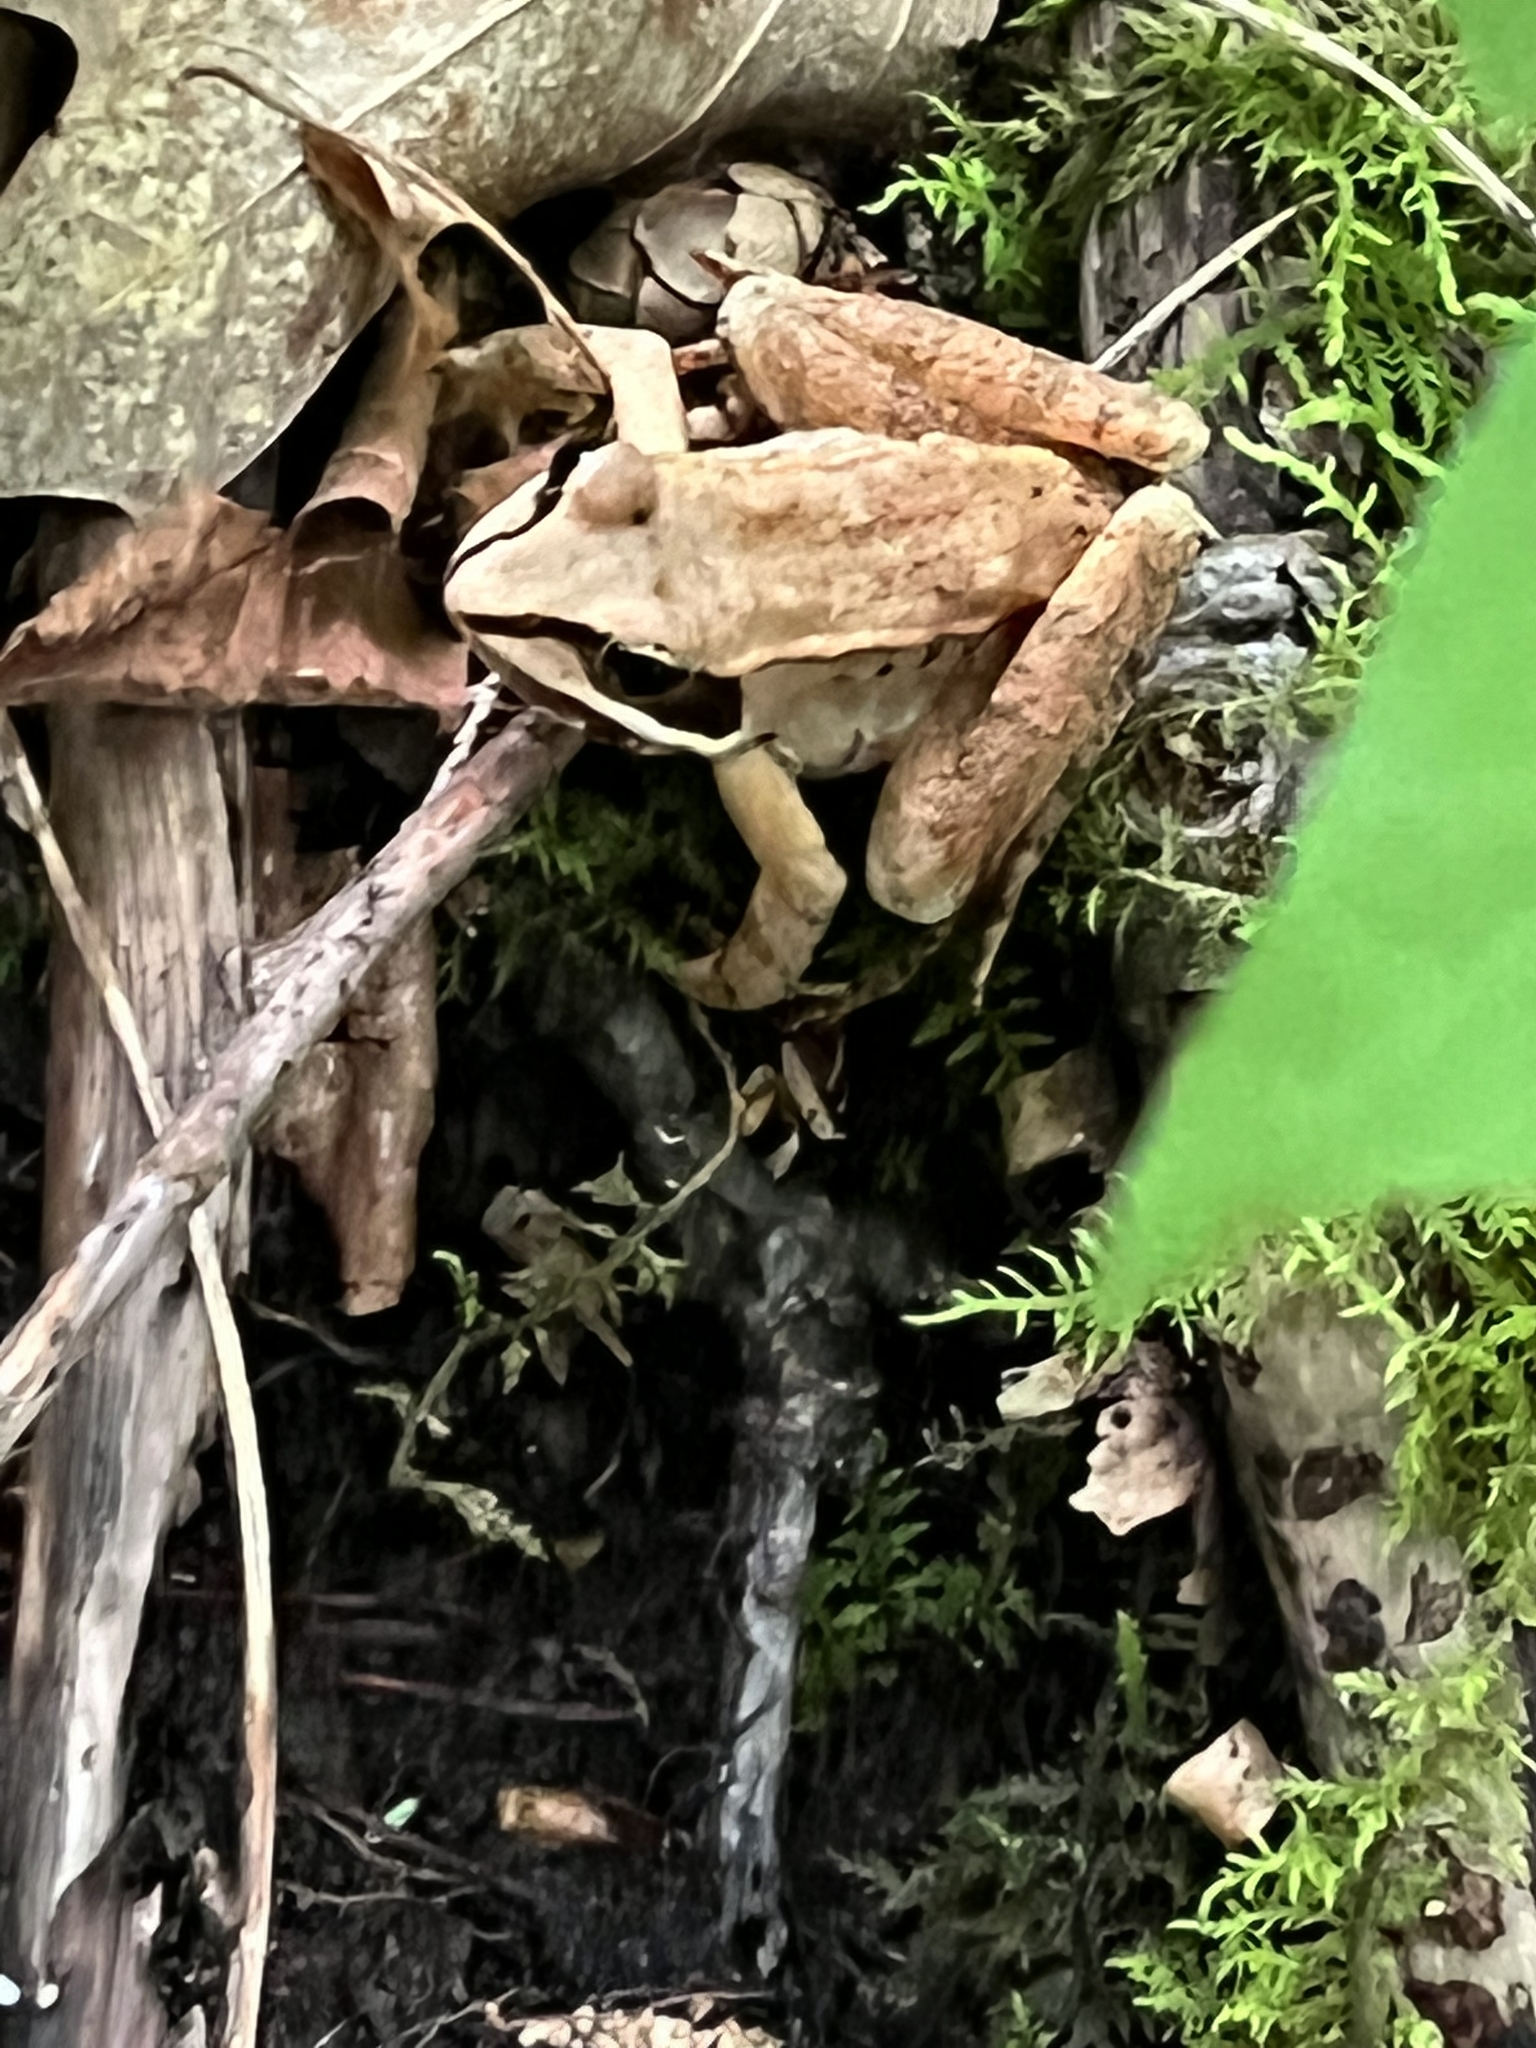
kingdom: Animalia
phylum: Chordata
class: Amphibia
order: Anura
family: Ranidae
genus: Lithobates
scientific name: Lithobates sylvaticus
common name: Wood frog
